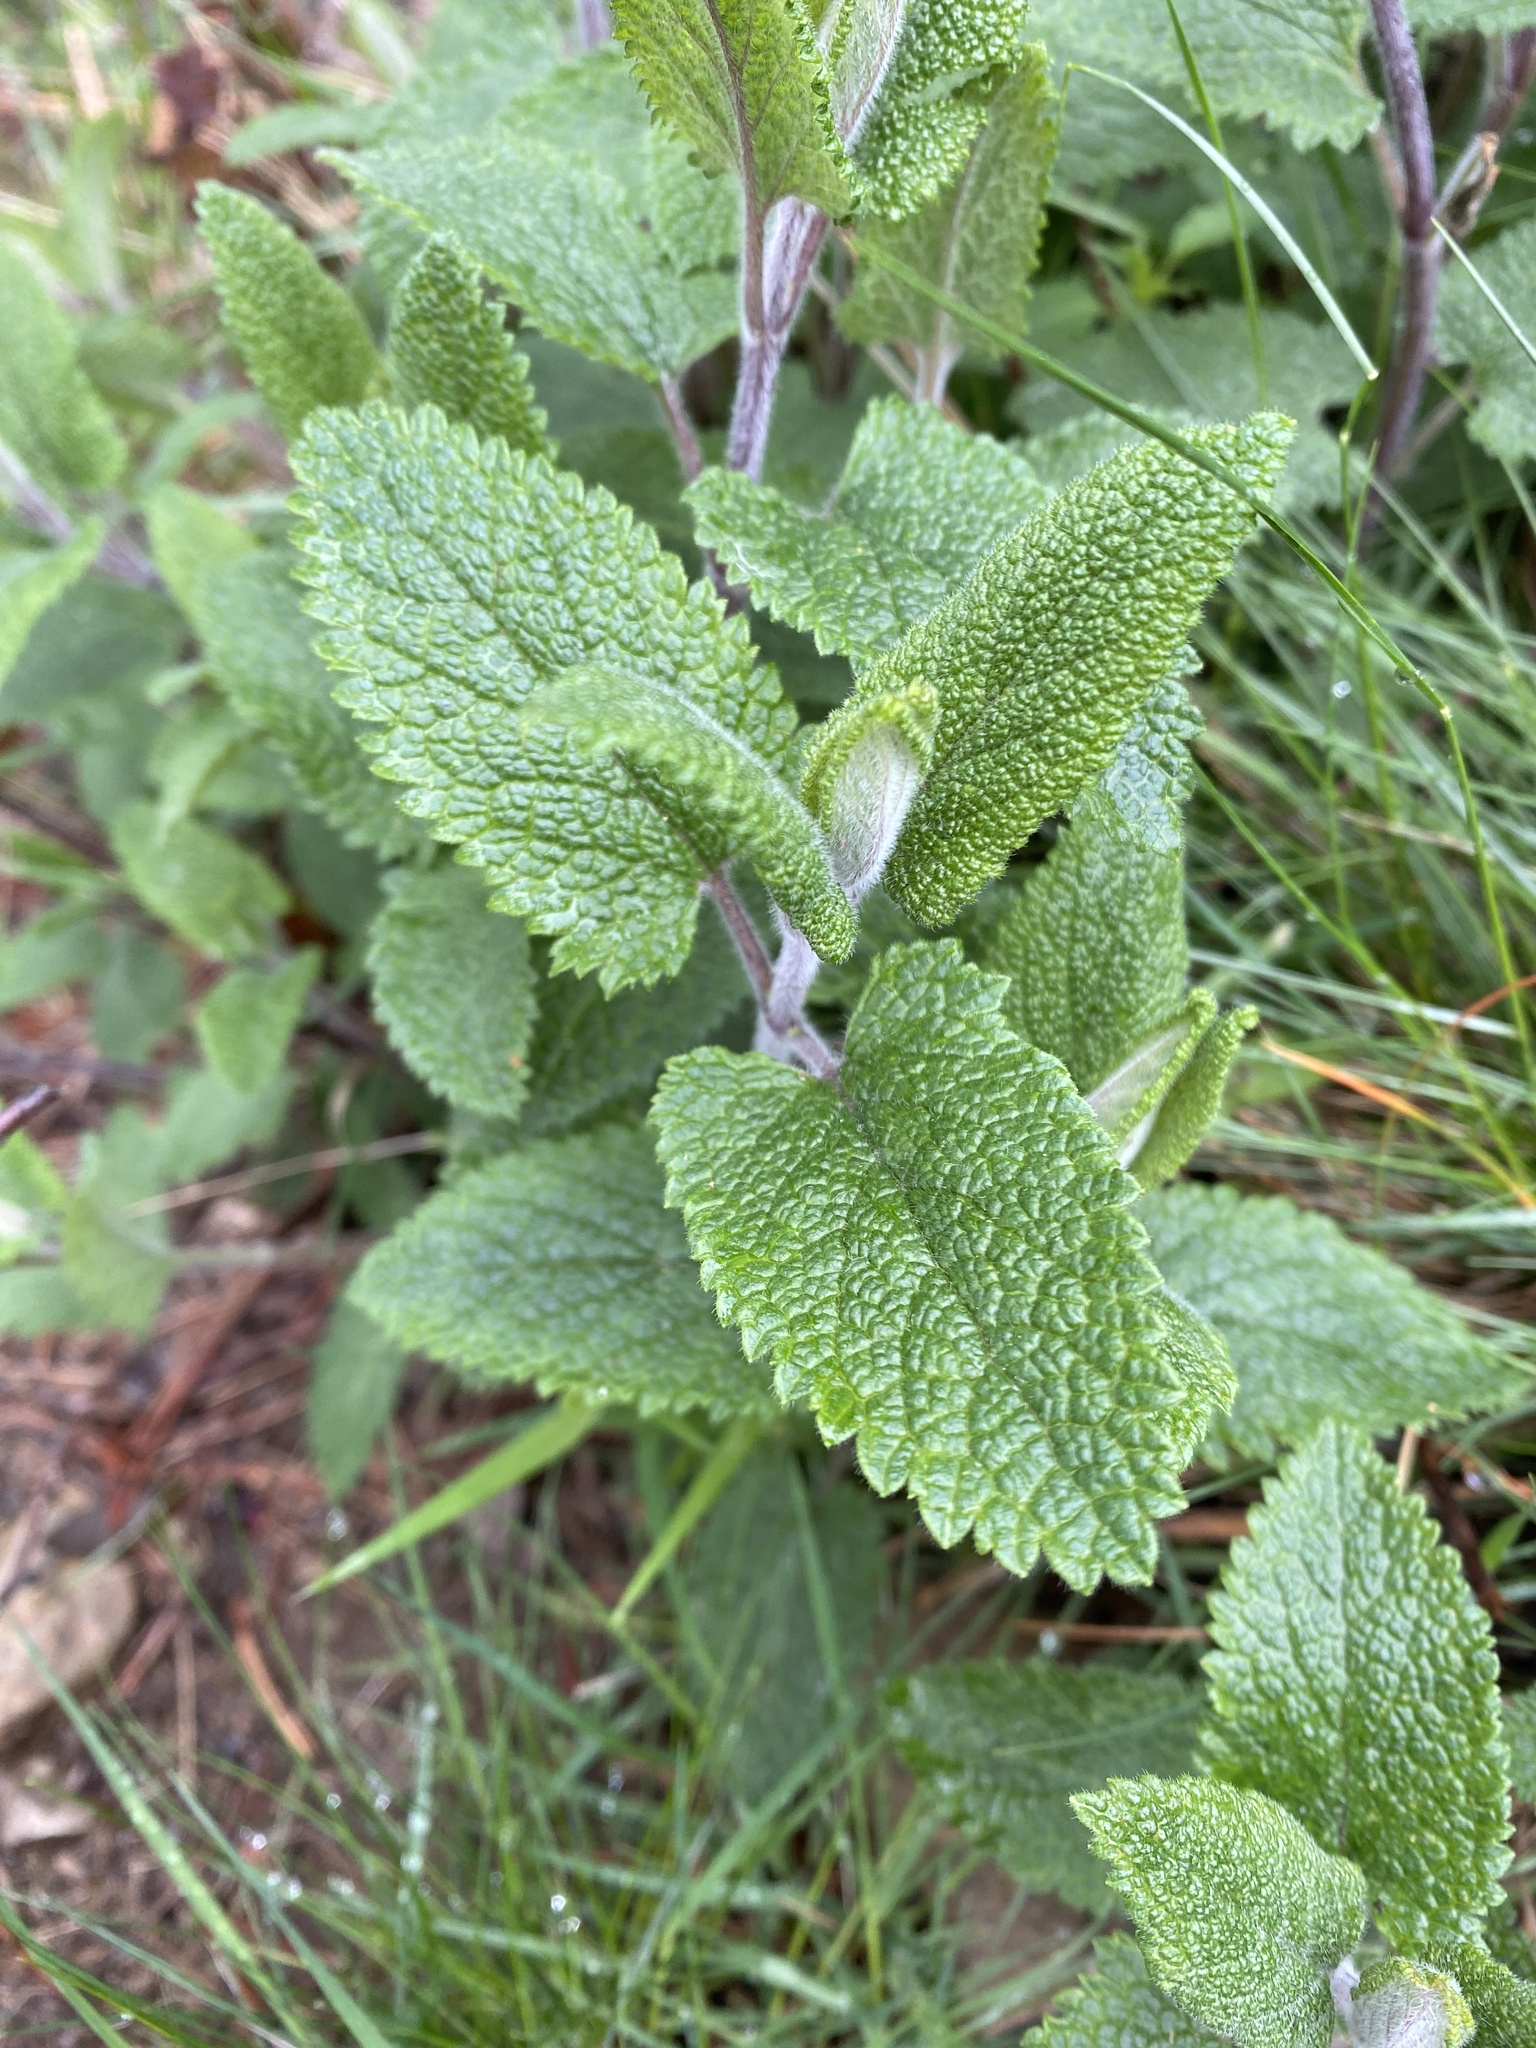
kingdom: Plantae
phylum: Tracheophyta
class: Magnoliopsida
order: Lamiales
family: Lamiaceae
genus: Teucrium
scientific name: Teucrium scorodonia
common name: Woodland germander
